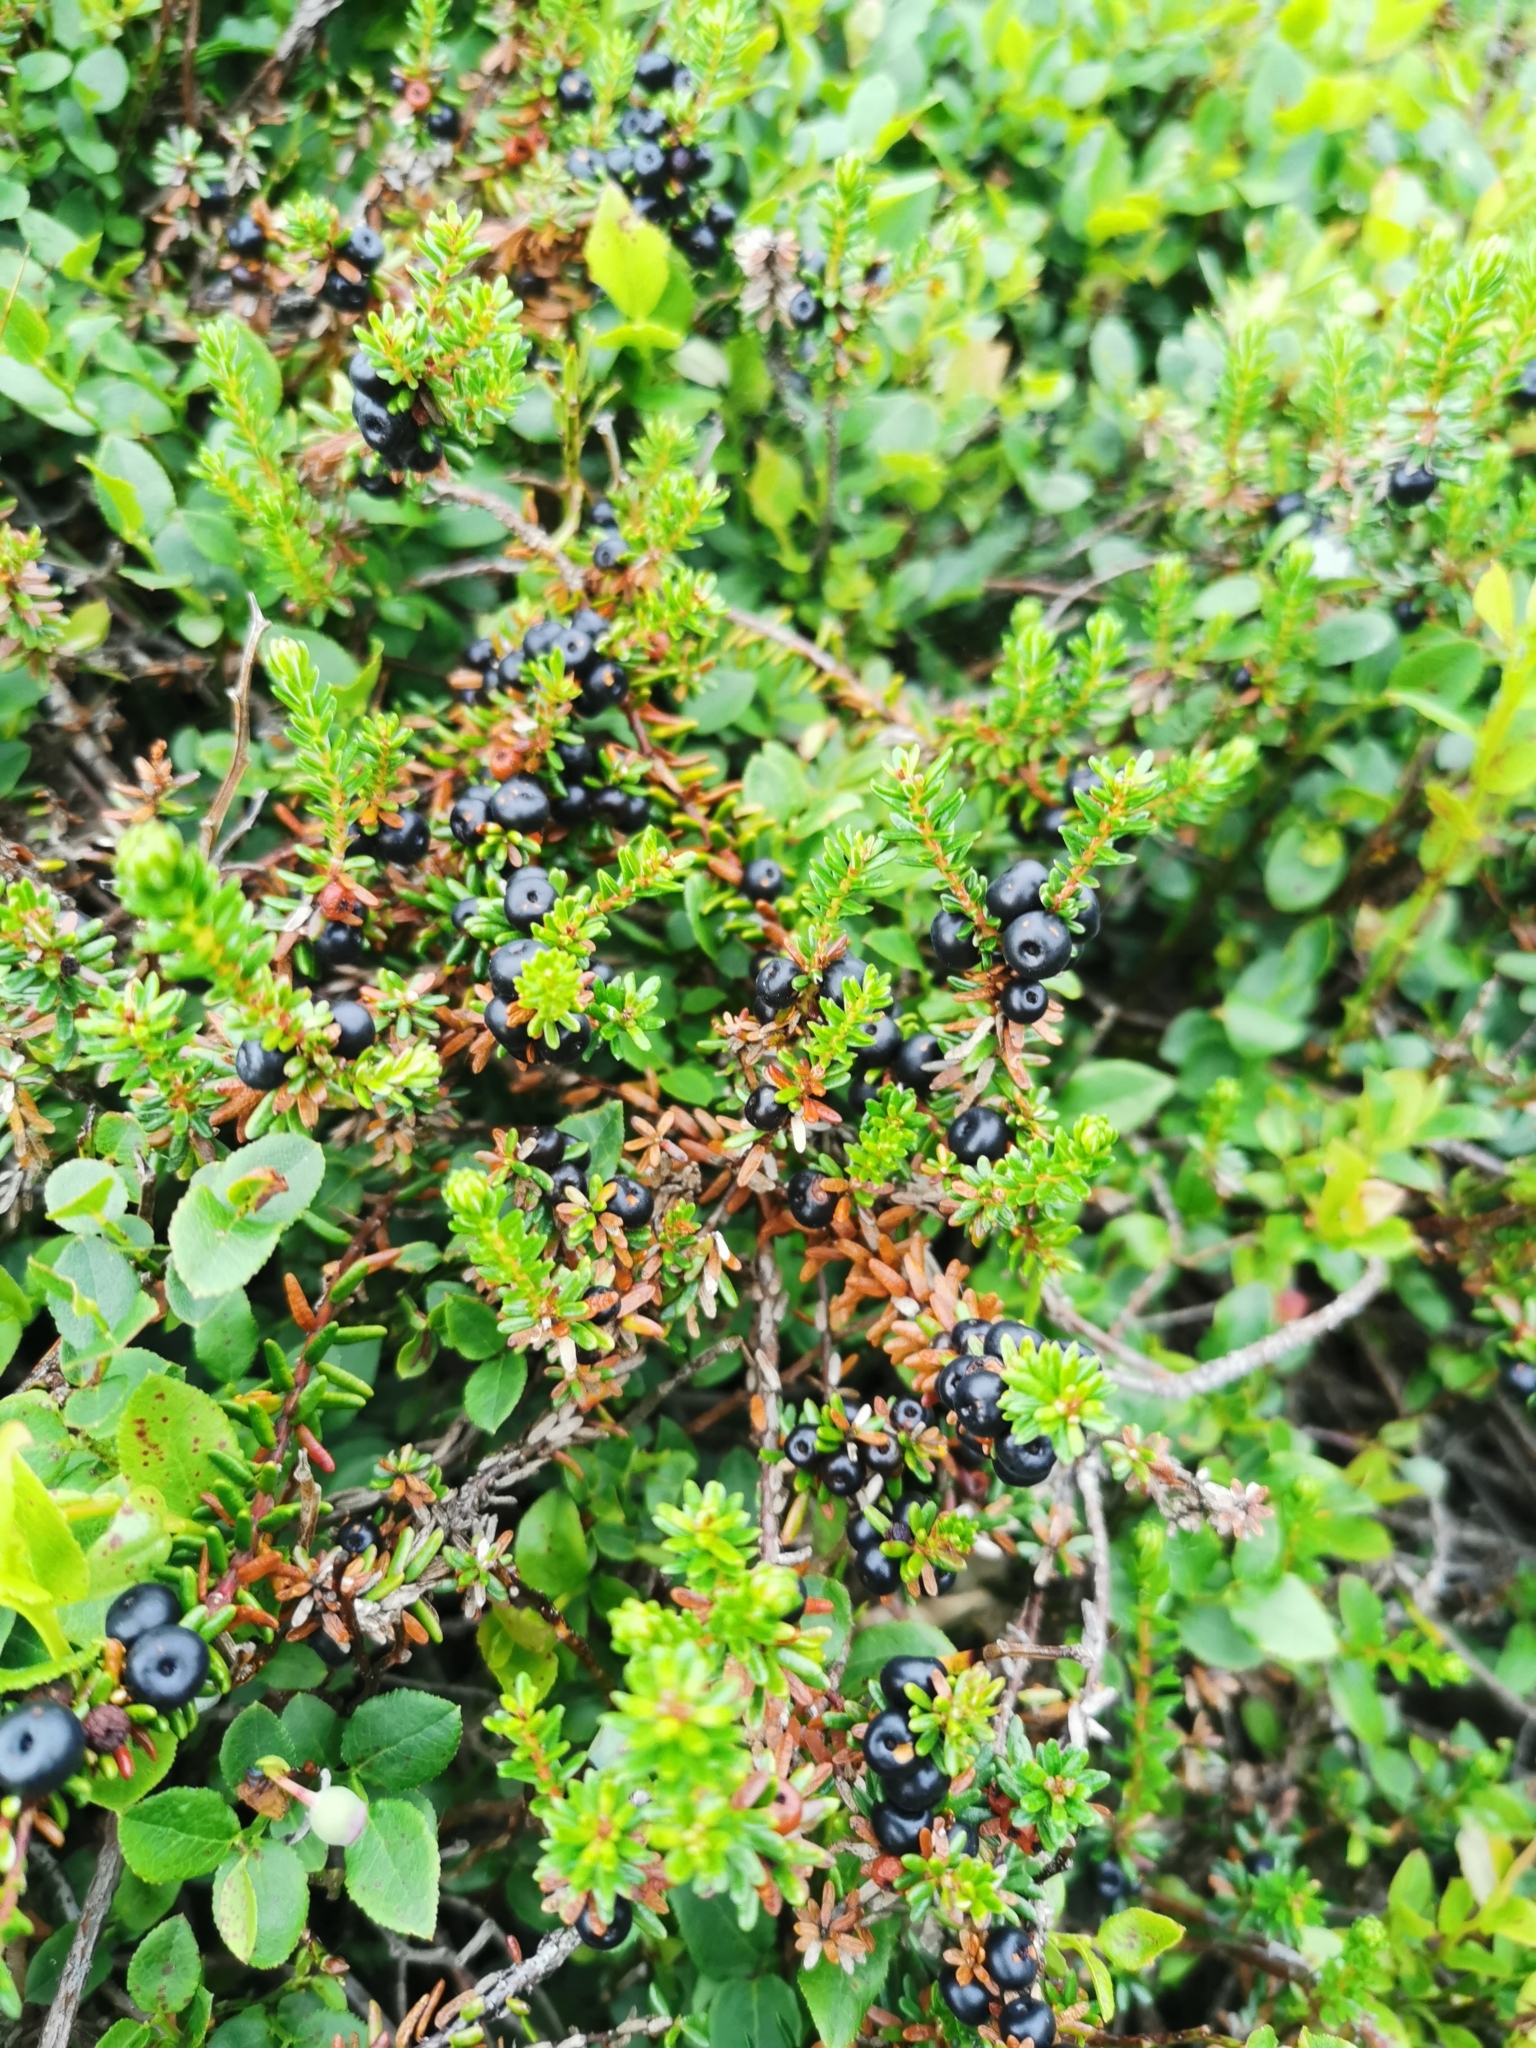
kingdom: Plantae
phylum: Tracheophyta
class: Magnoliopsida
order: Ericales
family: Ericaceae
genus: Empetrum
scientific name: Empetrum nigrum
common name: Black crowberry
